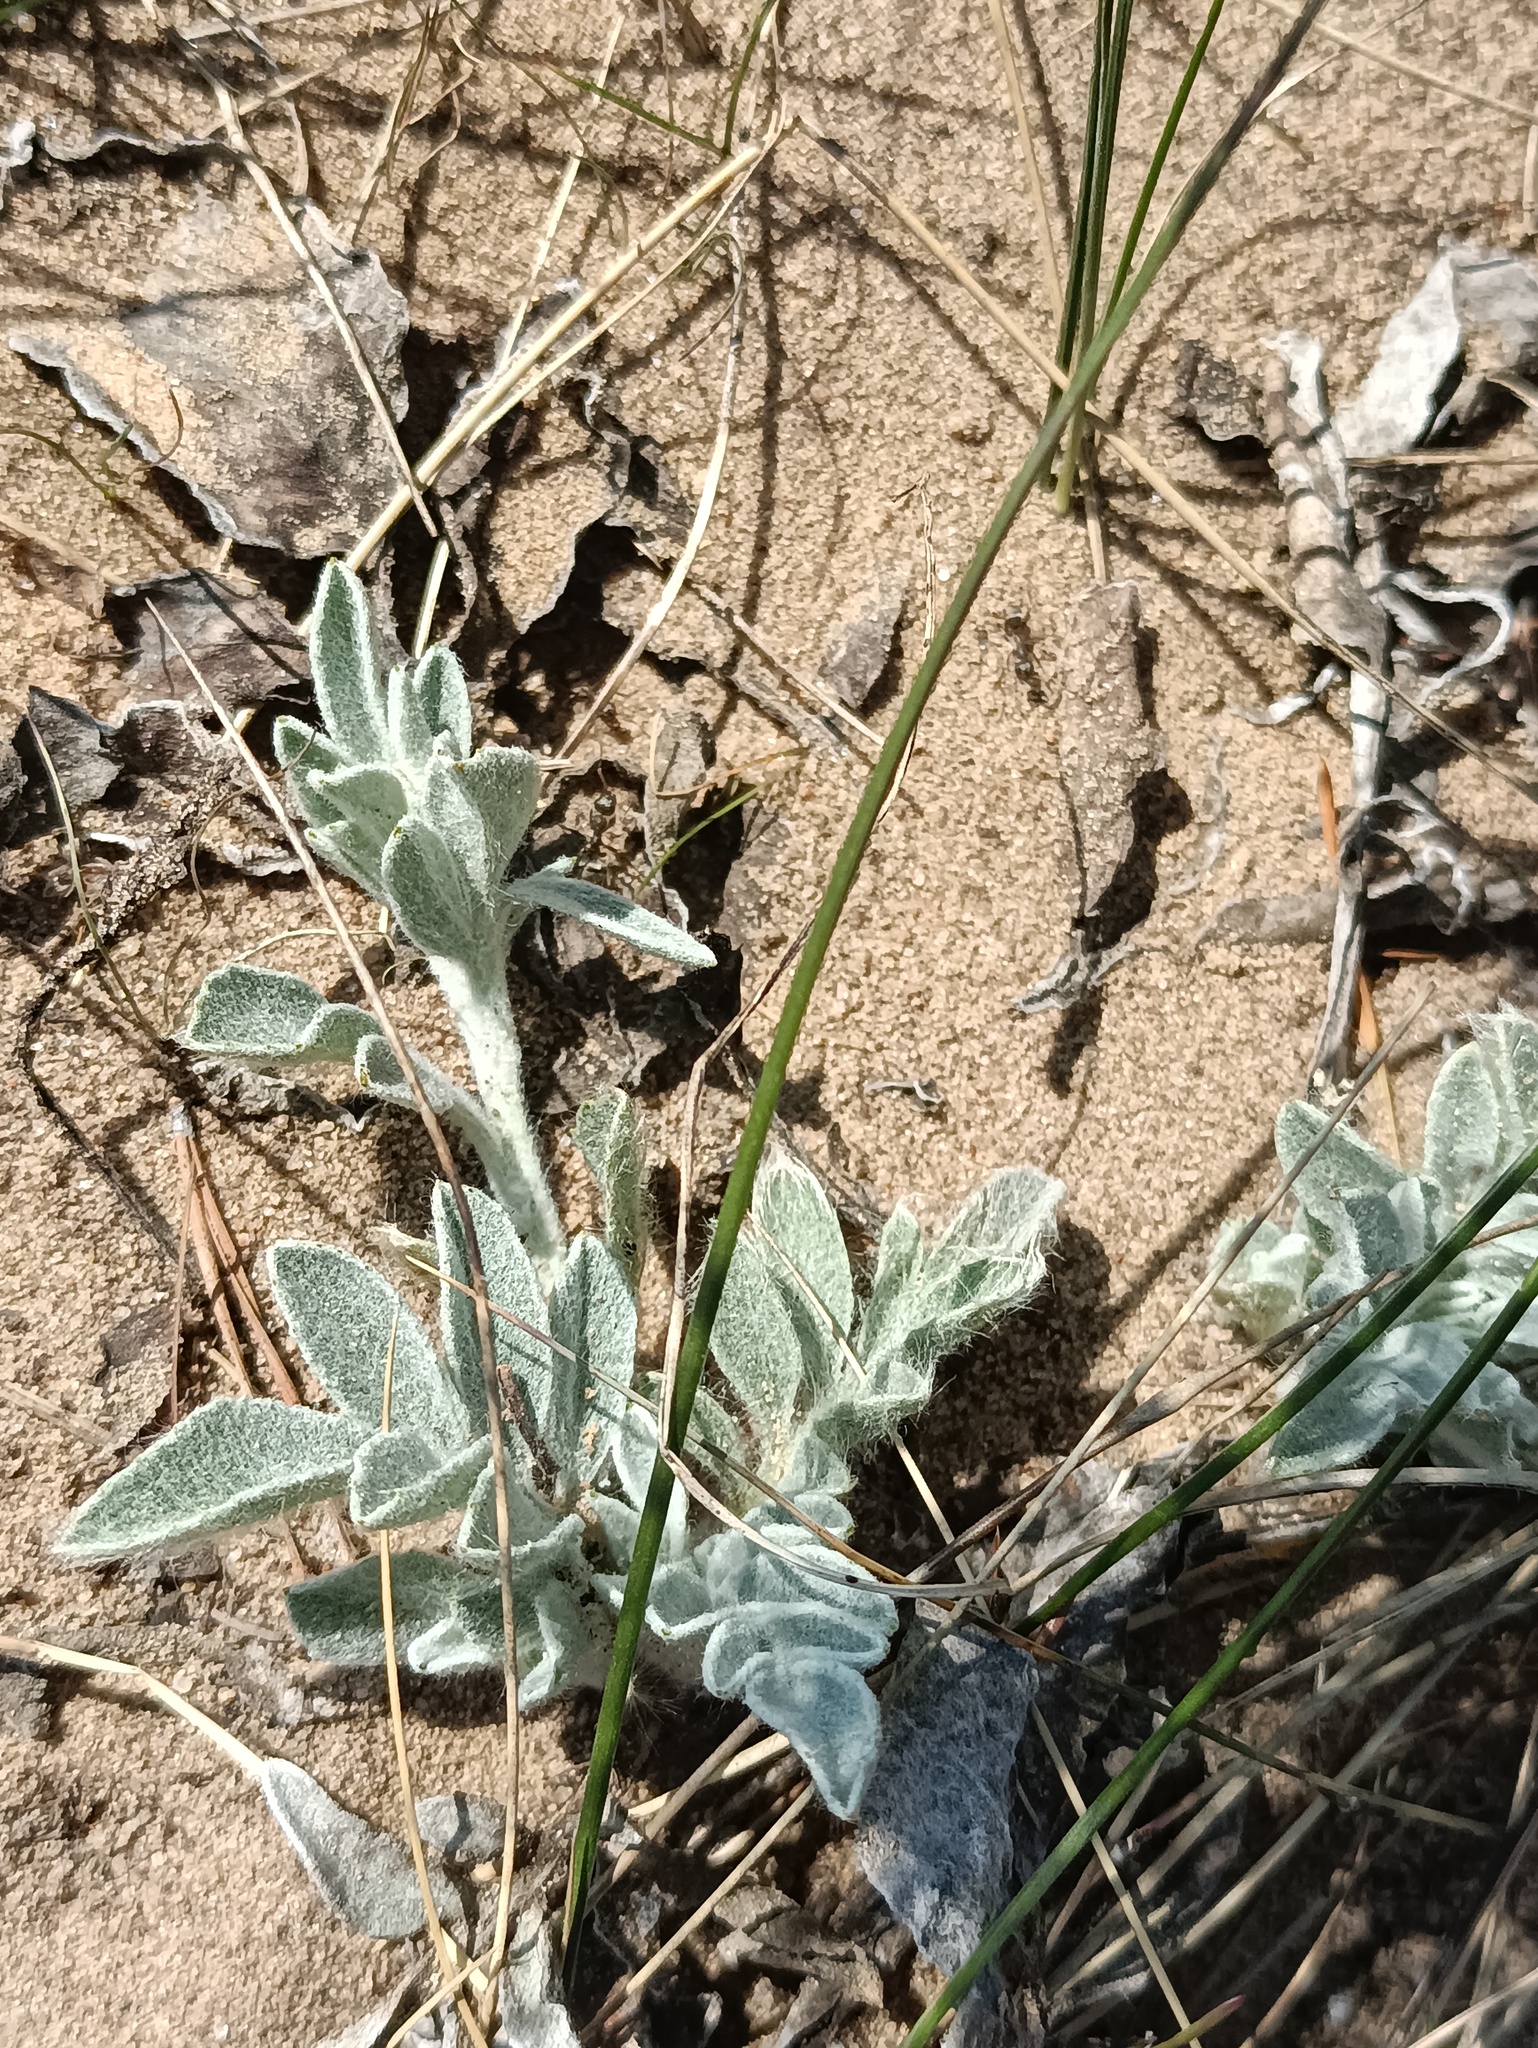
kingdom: Plantae
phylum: Tracheophyta
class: Magnoliopsida
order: Asterales
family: Asteraceae
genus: Psephellus
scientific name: Psephellus sumensis
